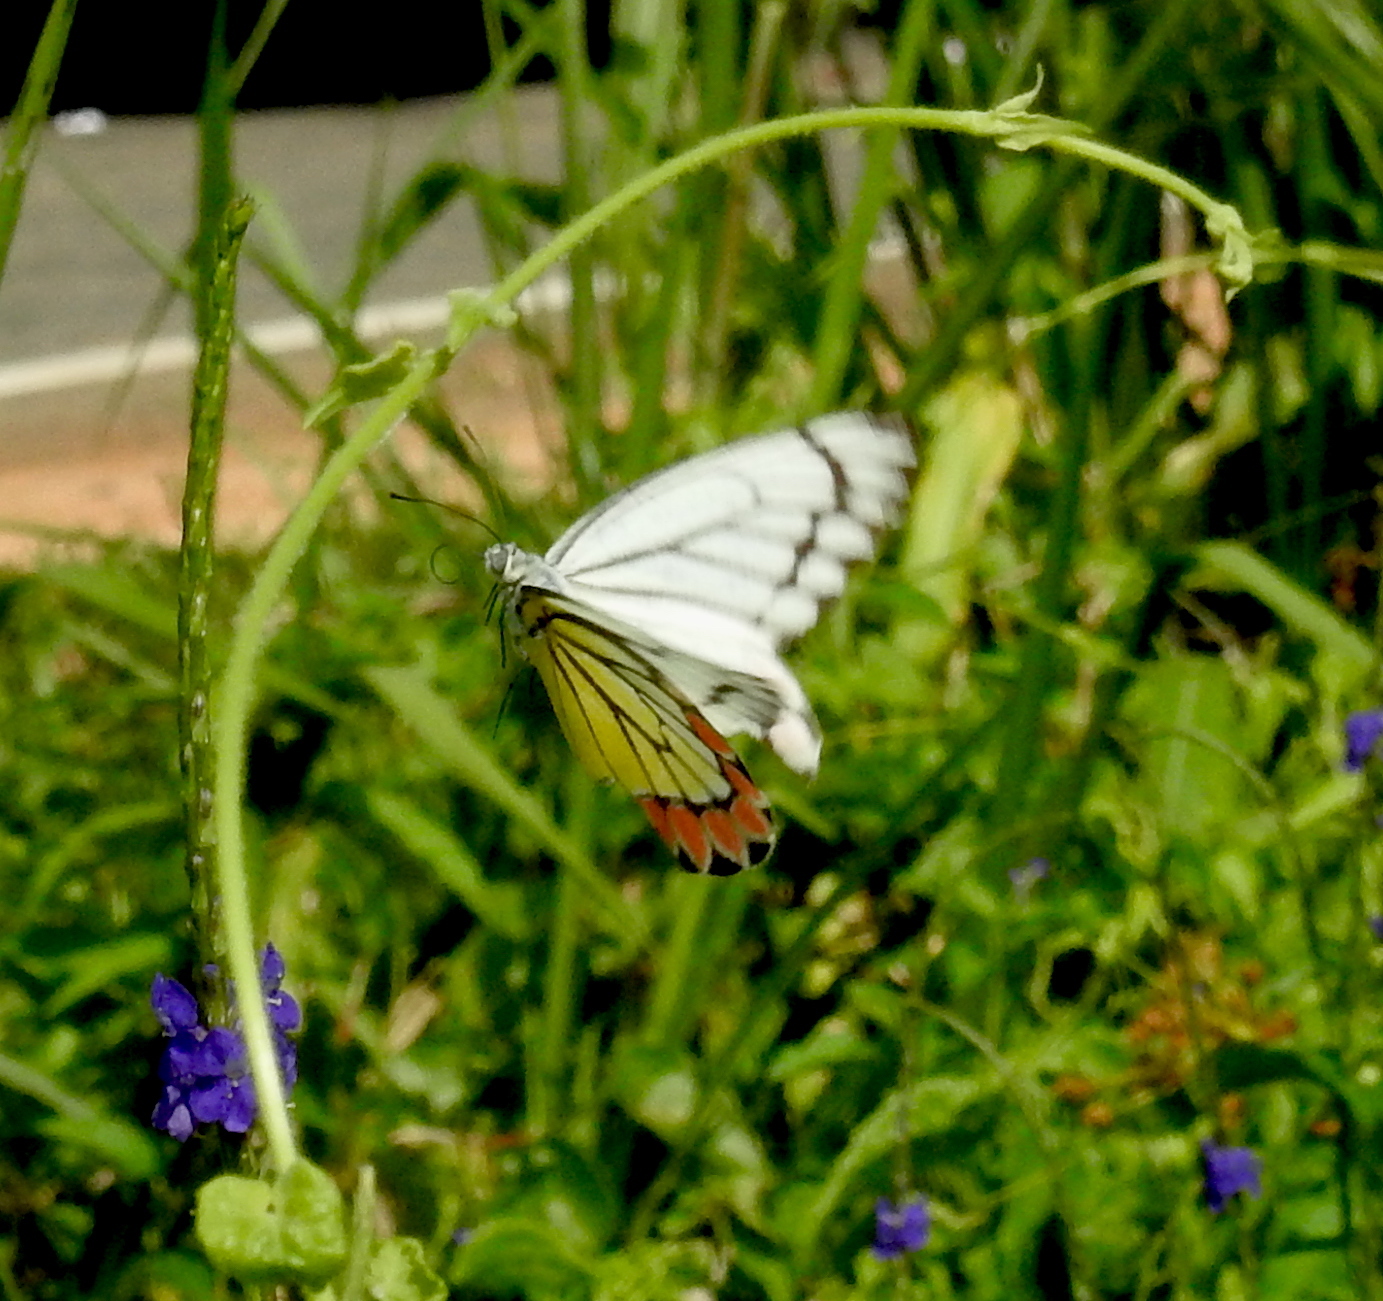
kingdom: Animalia
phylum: Arthropoda
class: Insecta
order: Lepidoptera
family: Pieridae
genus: Delias
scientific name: Delias eucharis
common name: Common jezebel
